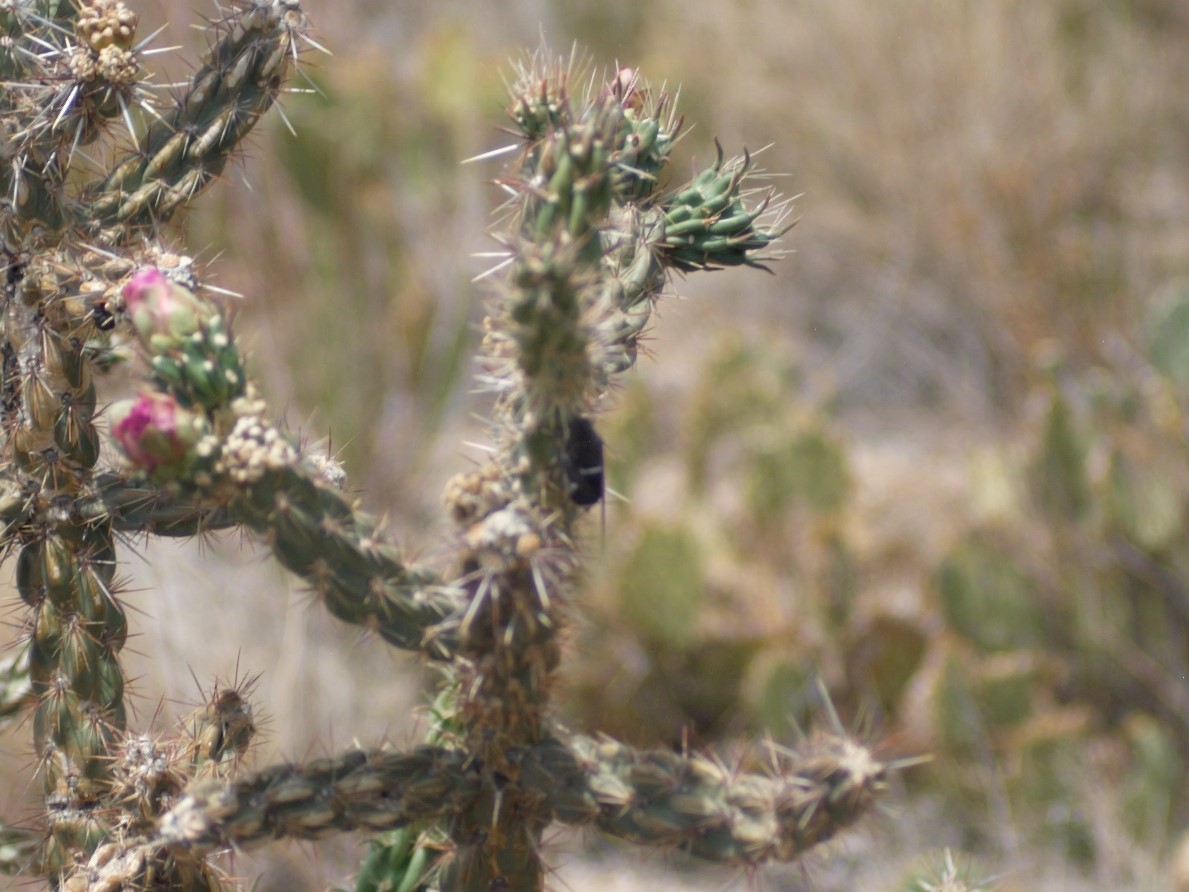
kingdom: Animalia
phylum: Arthropoda
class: Insecta
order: Hemiptera
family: Cicadidae
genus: Cacama
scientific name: Cacama valvata
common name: Cactus dodger
